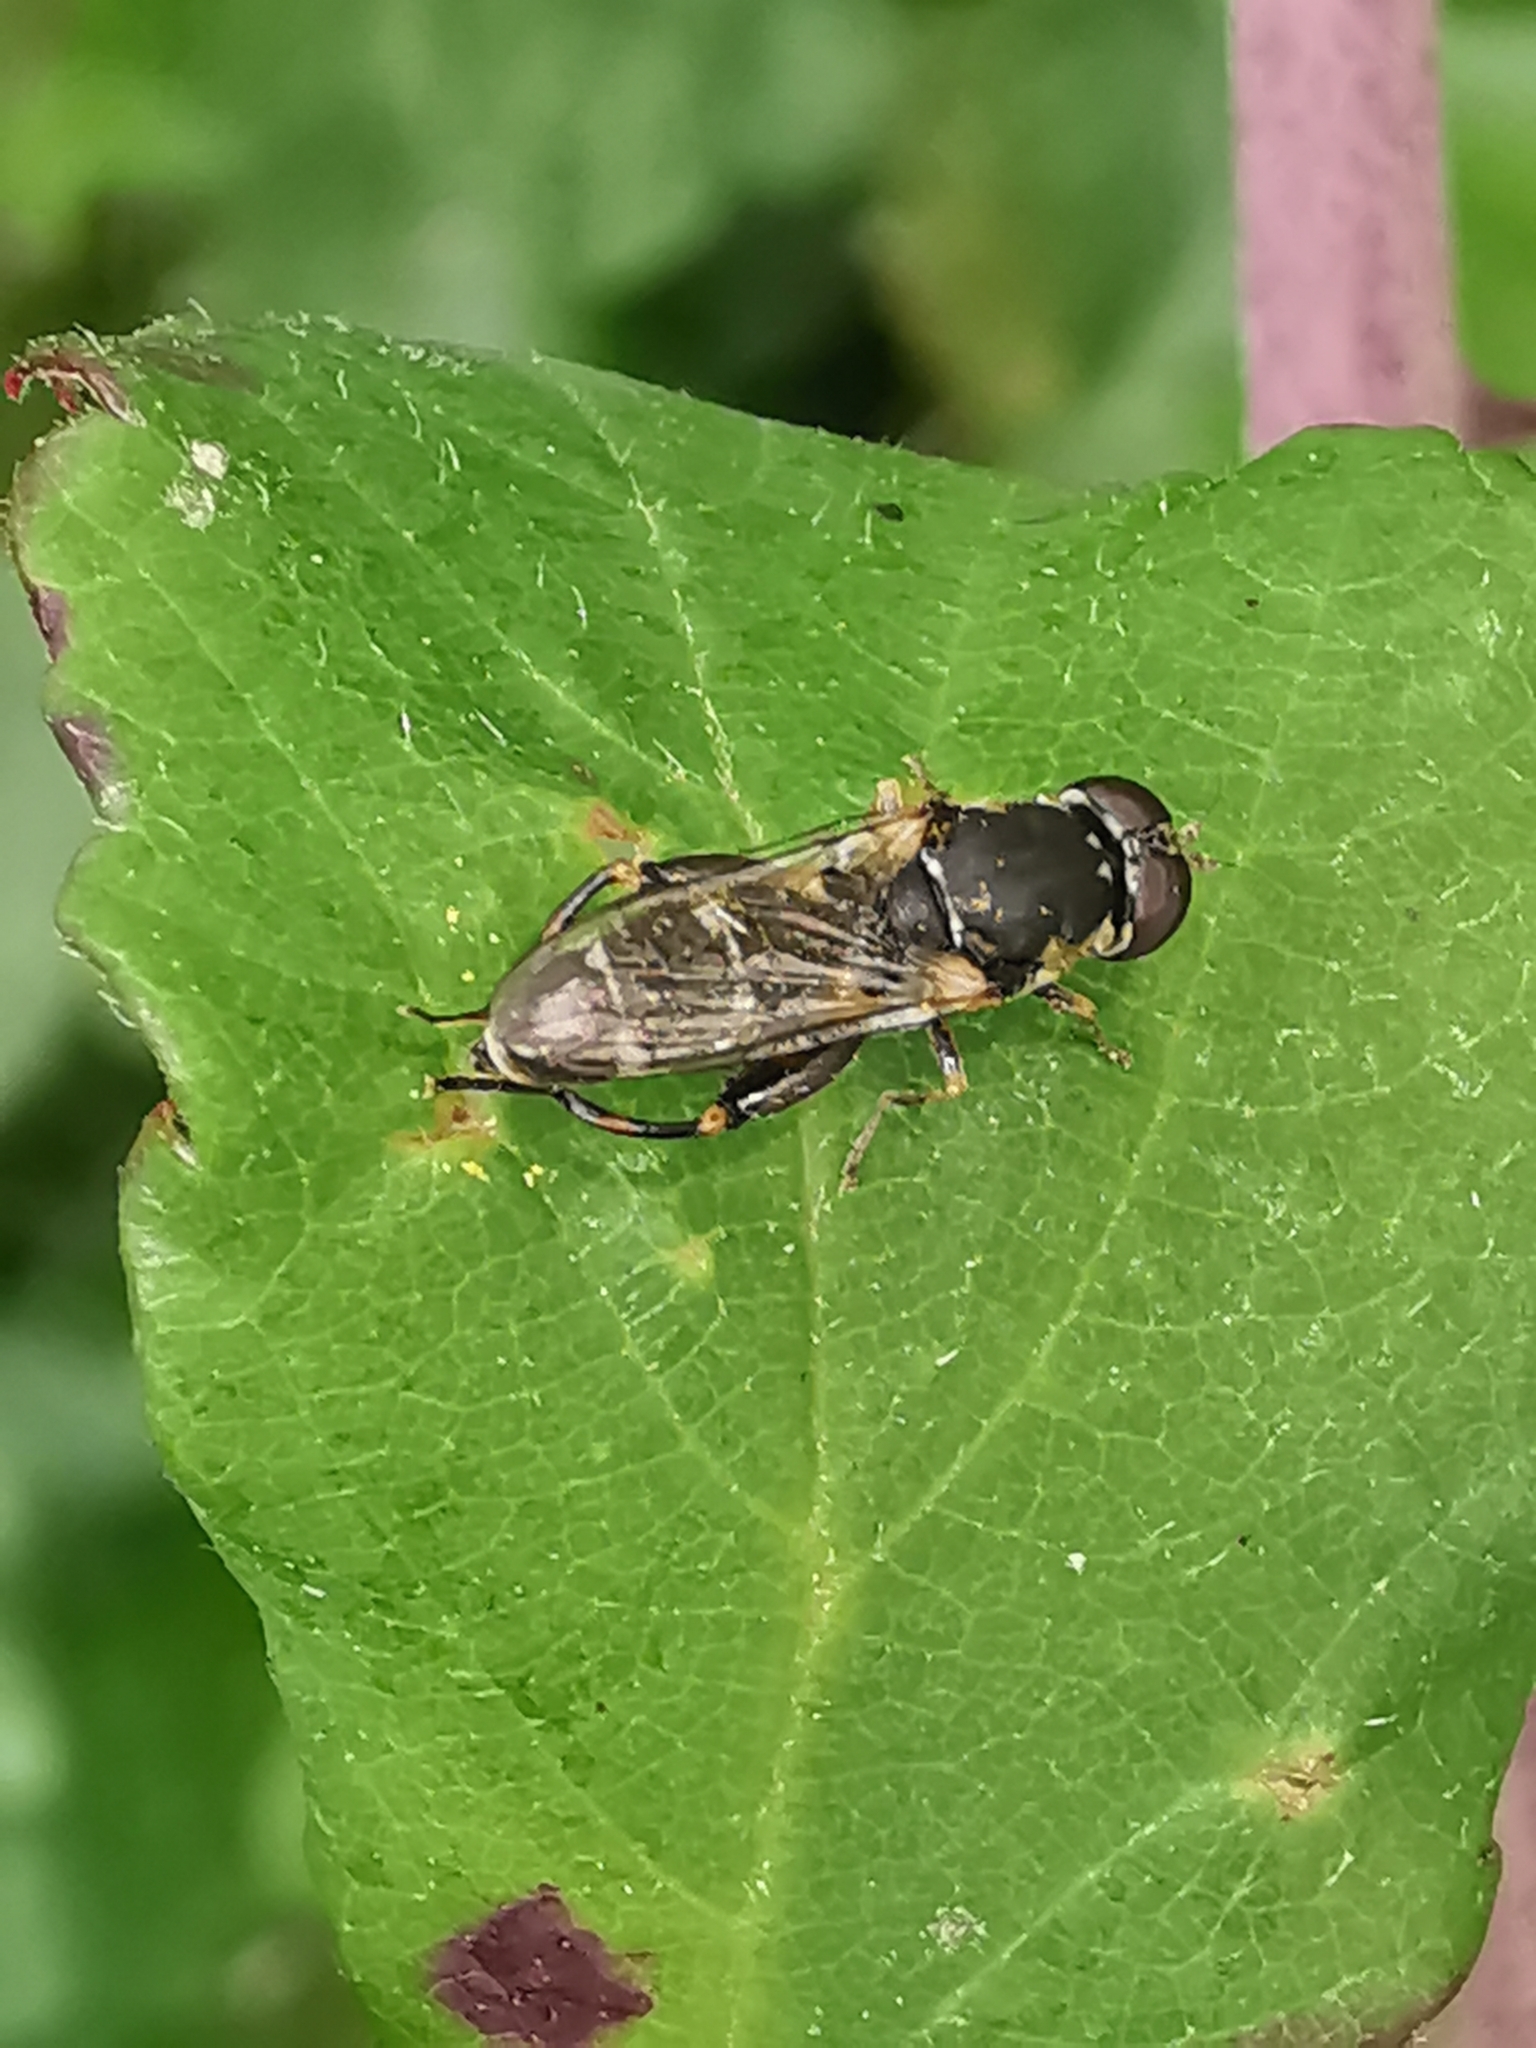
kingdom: Animalia
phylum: Arthropoda
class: Insecta
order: Diptera
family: Syrphidae
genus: Syritta
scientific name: Syritta pipiens
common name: Hover fly
